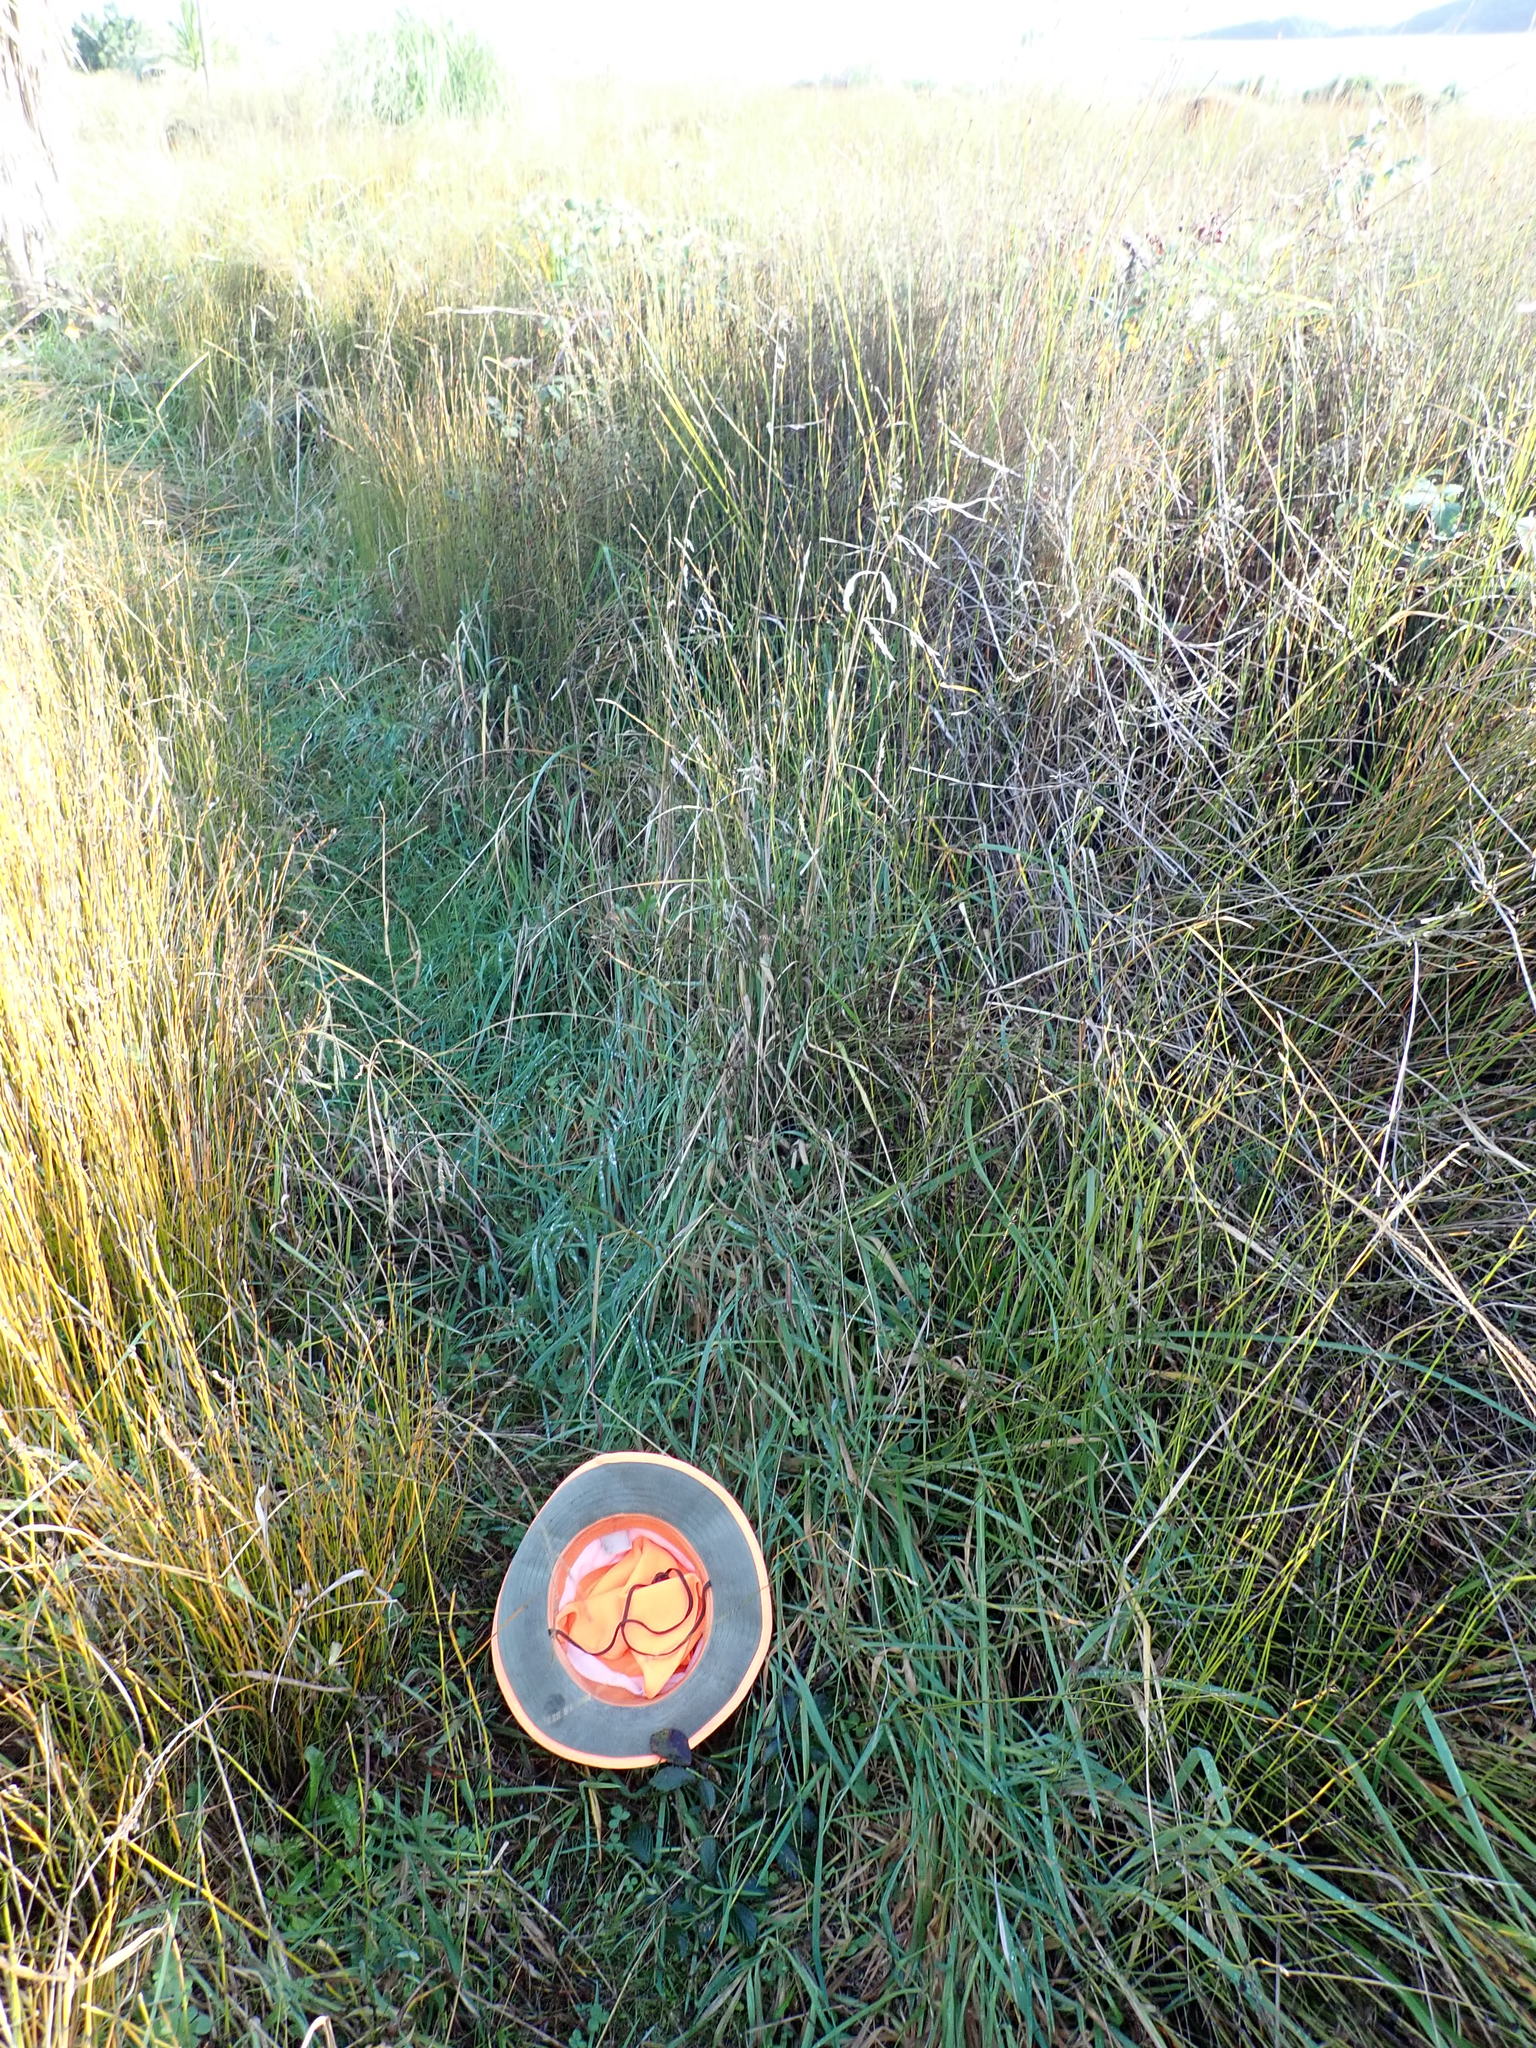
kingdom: Plantae
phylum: Tracheophyta
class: Liliopsida
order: Poales
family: Juncaceae
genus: Juncus
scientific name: Juncus caespiticius
